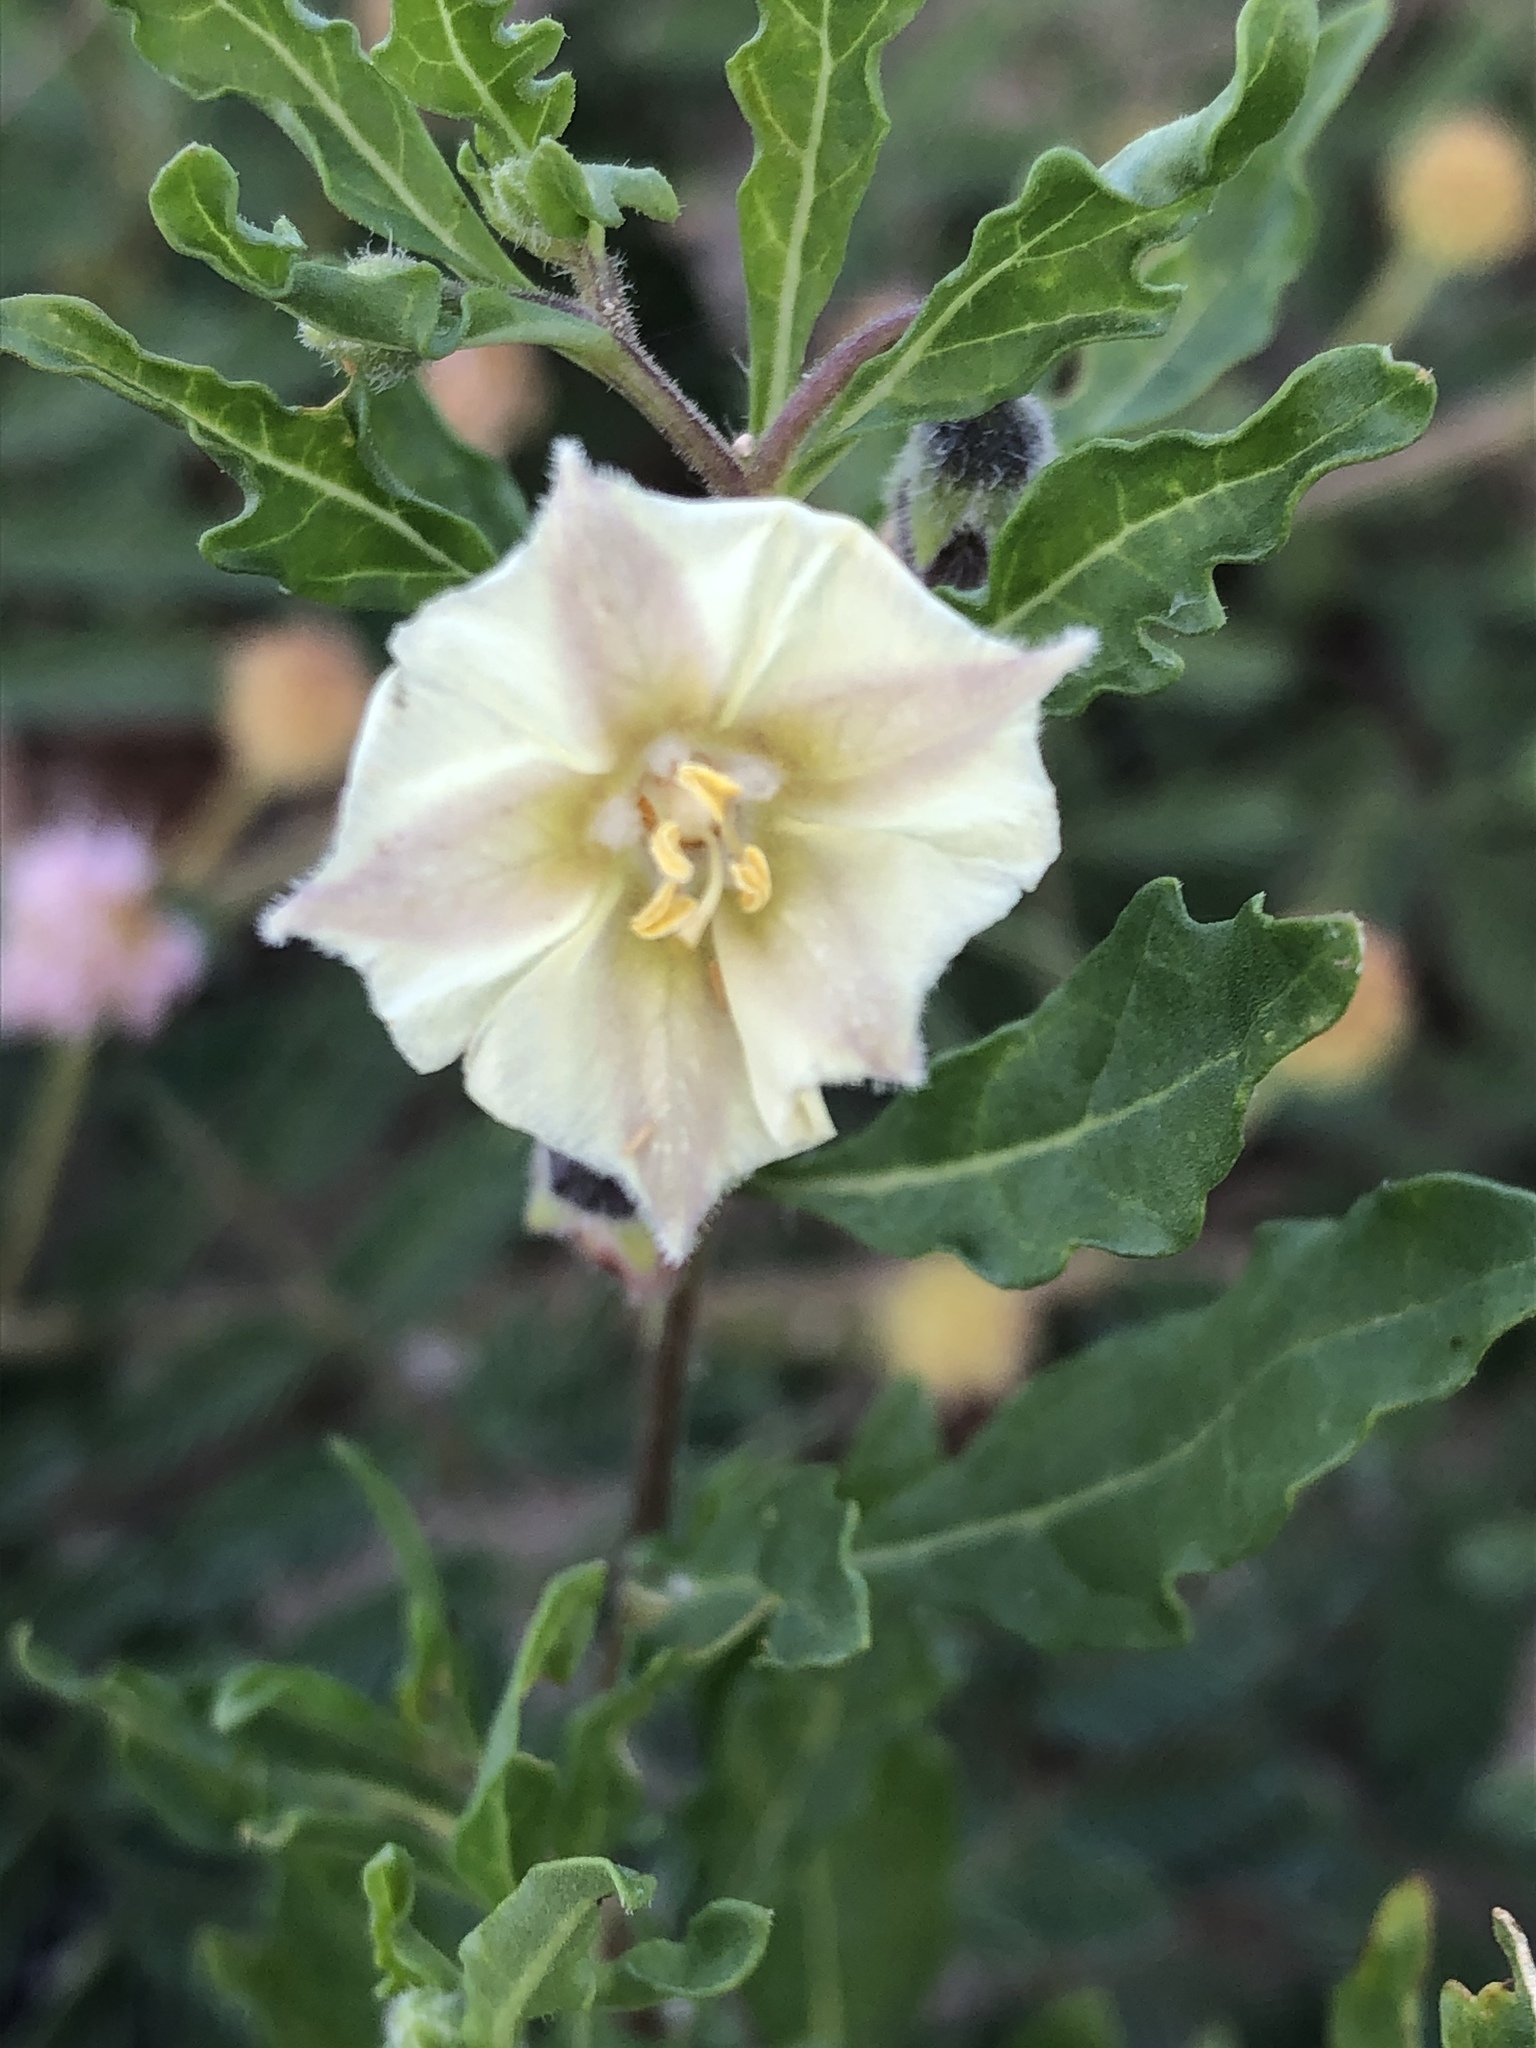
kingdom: Plantae
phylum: Tracheophyta
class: Magnoliopsida
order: Solanales
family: Solanaceae
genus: Chamaesaracha
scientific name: Chamaesaracha edwardsiana
